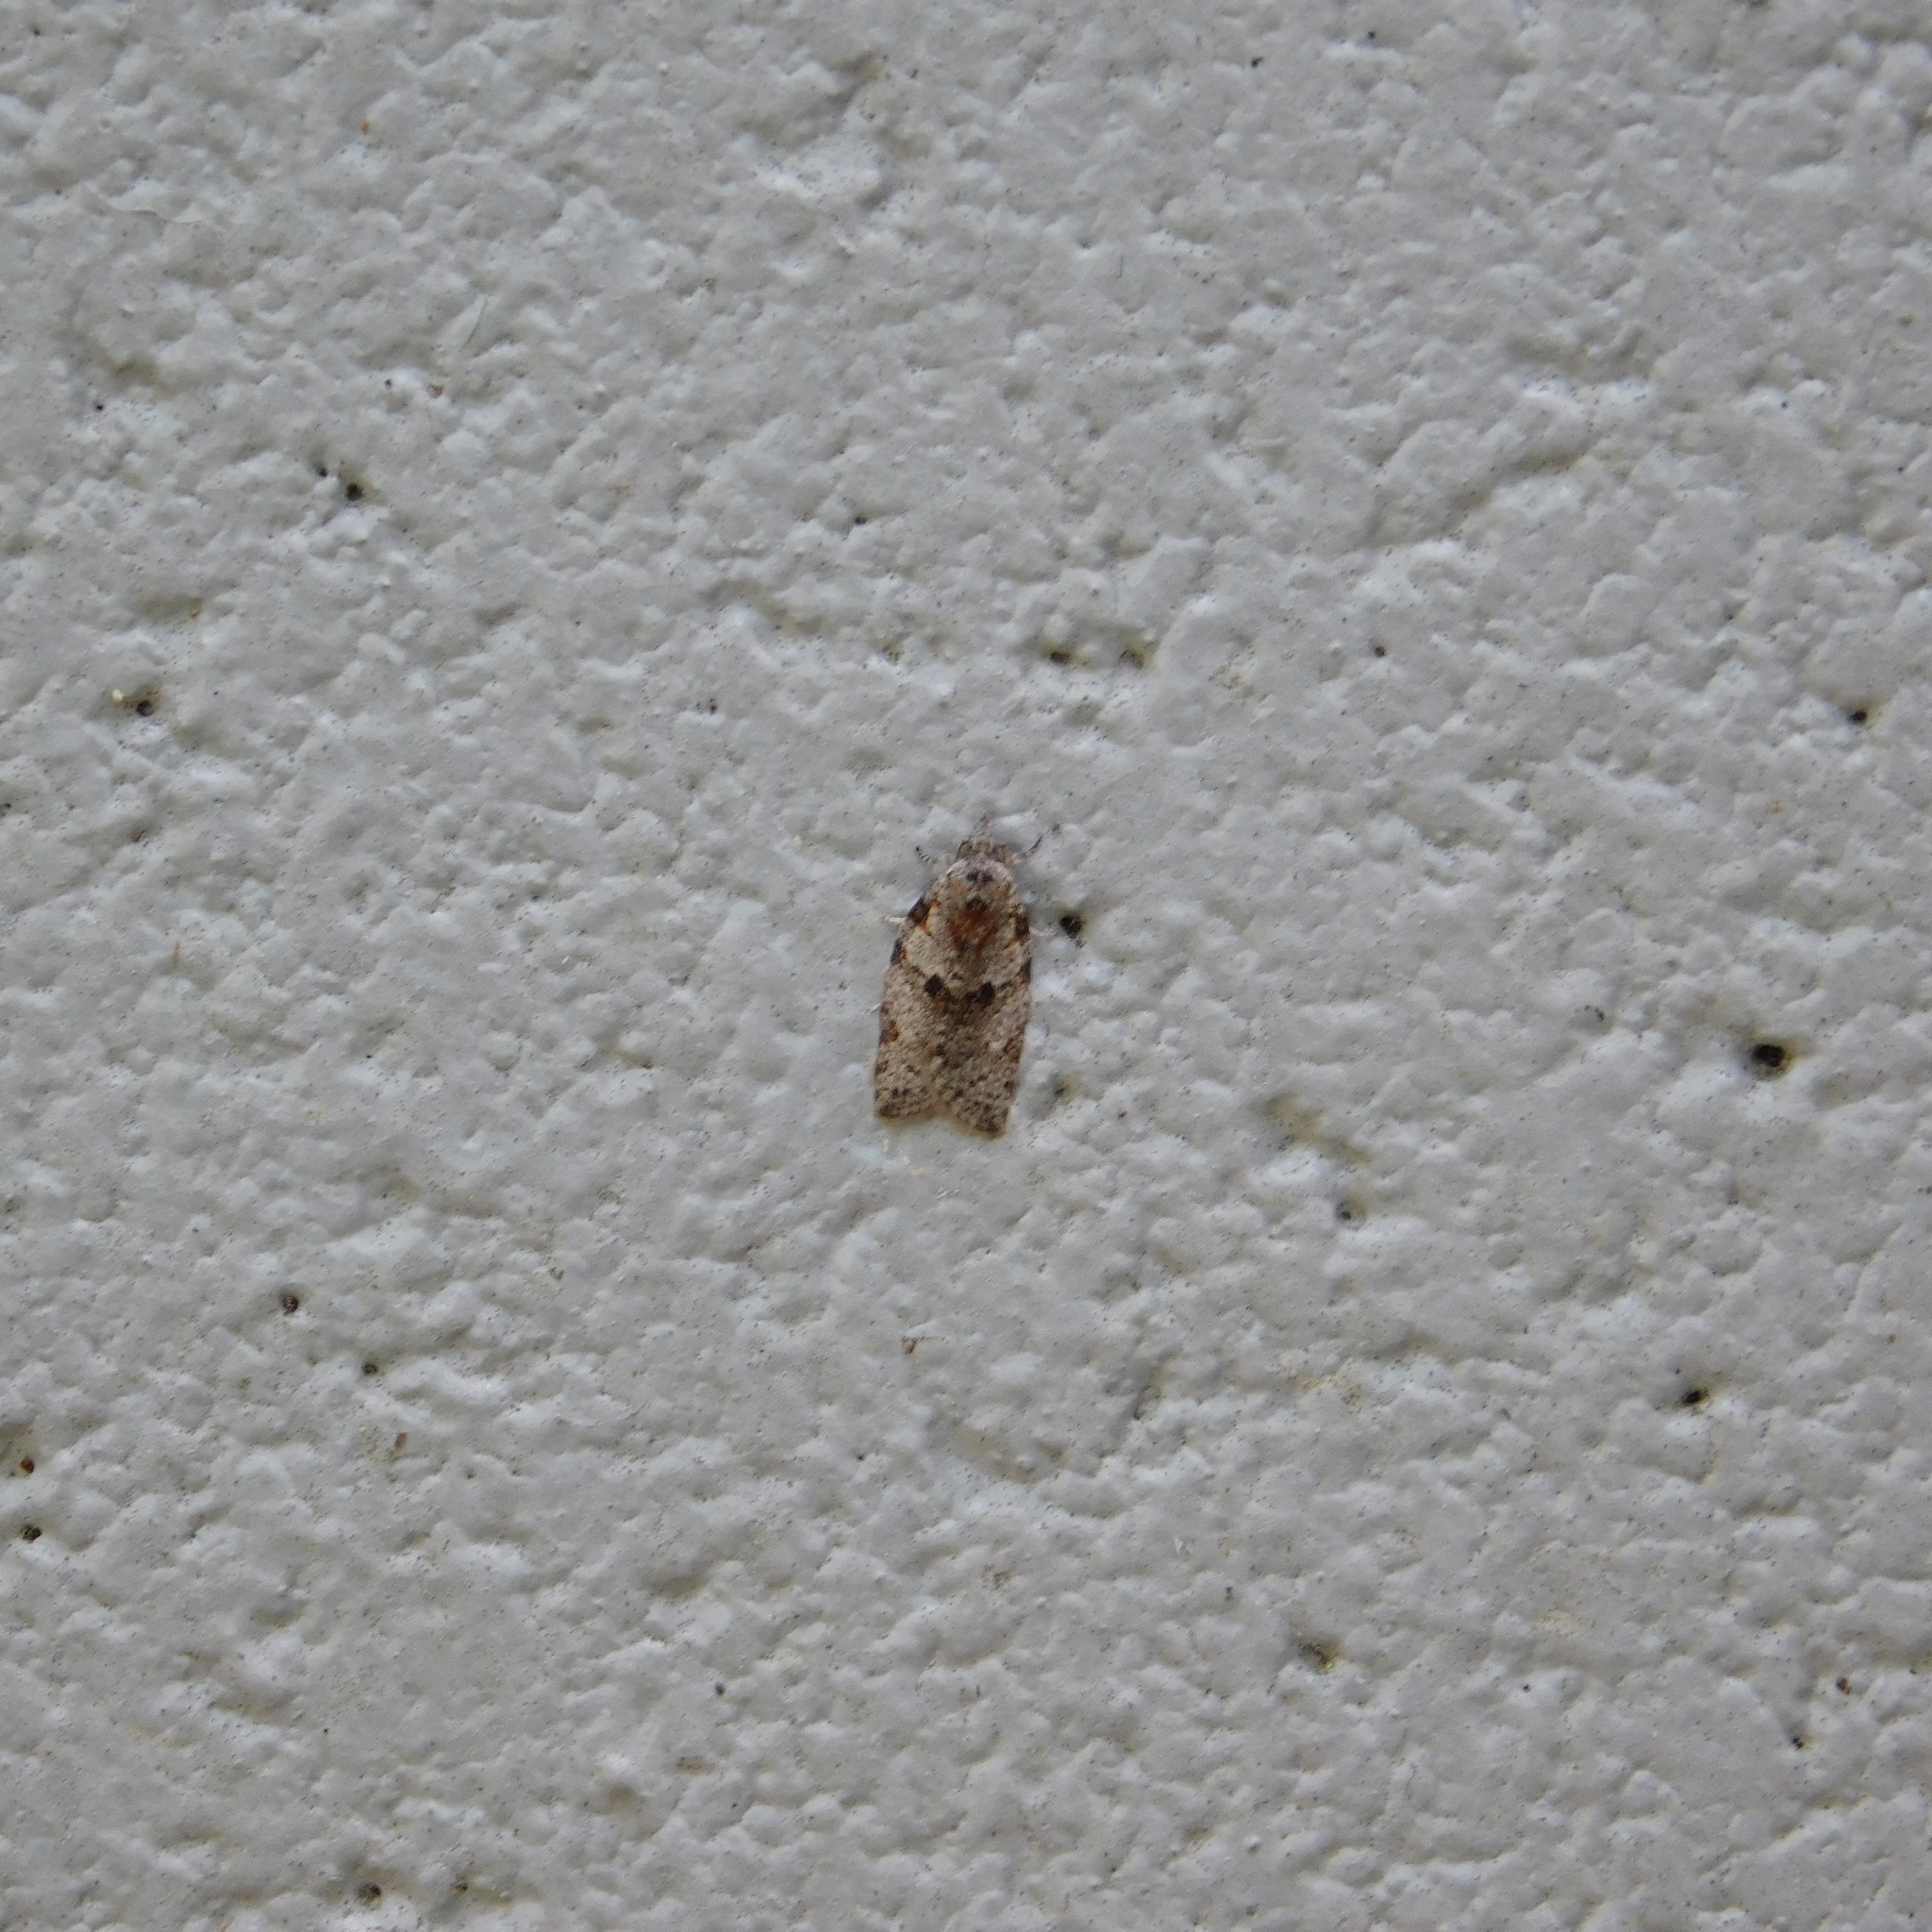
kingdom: Animalia
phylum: Arthropoda
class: Insecta
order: Lepidoptera
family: Tortricidae
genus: Isotenes
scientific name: Isotenes miserana
